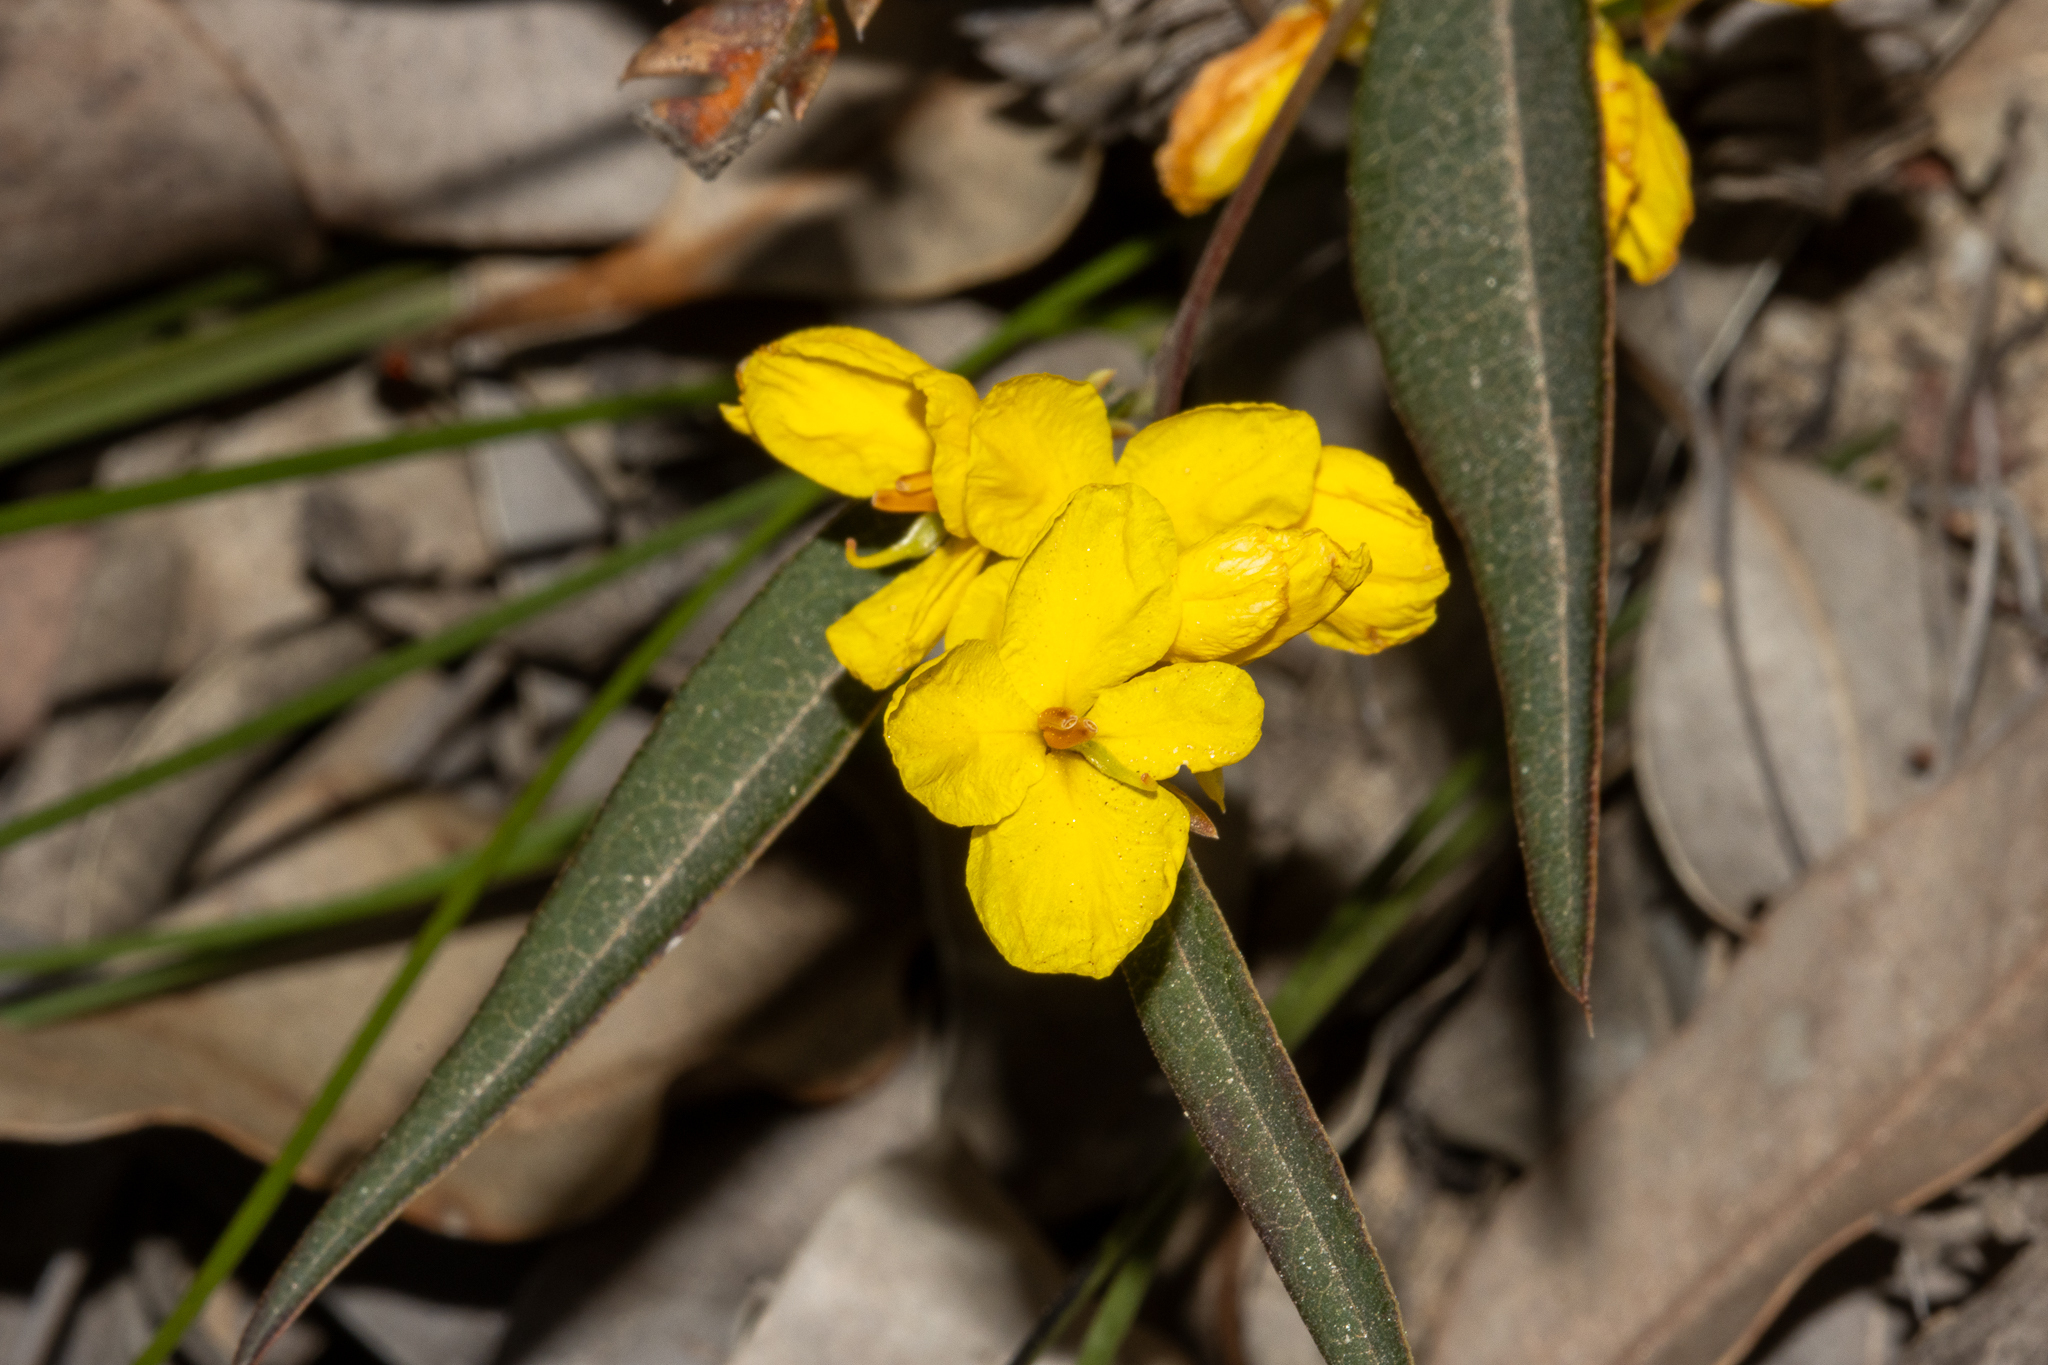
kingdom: Plantae
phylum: Tracheophyta
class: Magnoliopsida
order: Fabales
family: Fabaceae
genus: Labichea
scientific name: Labichea punctata
